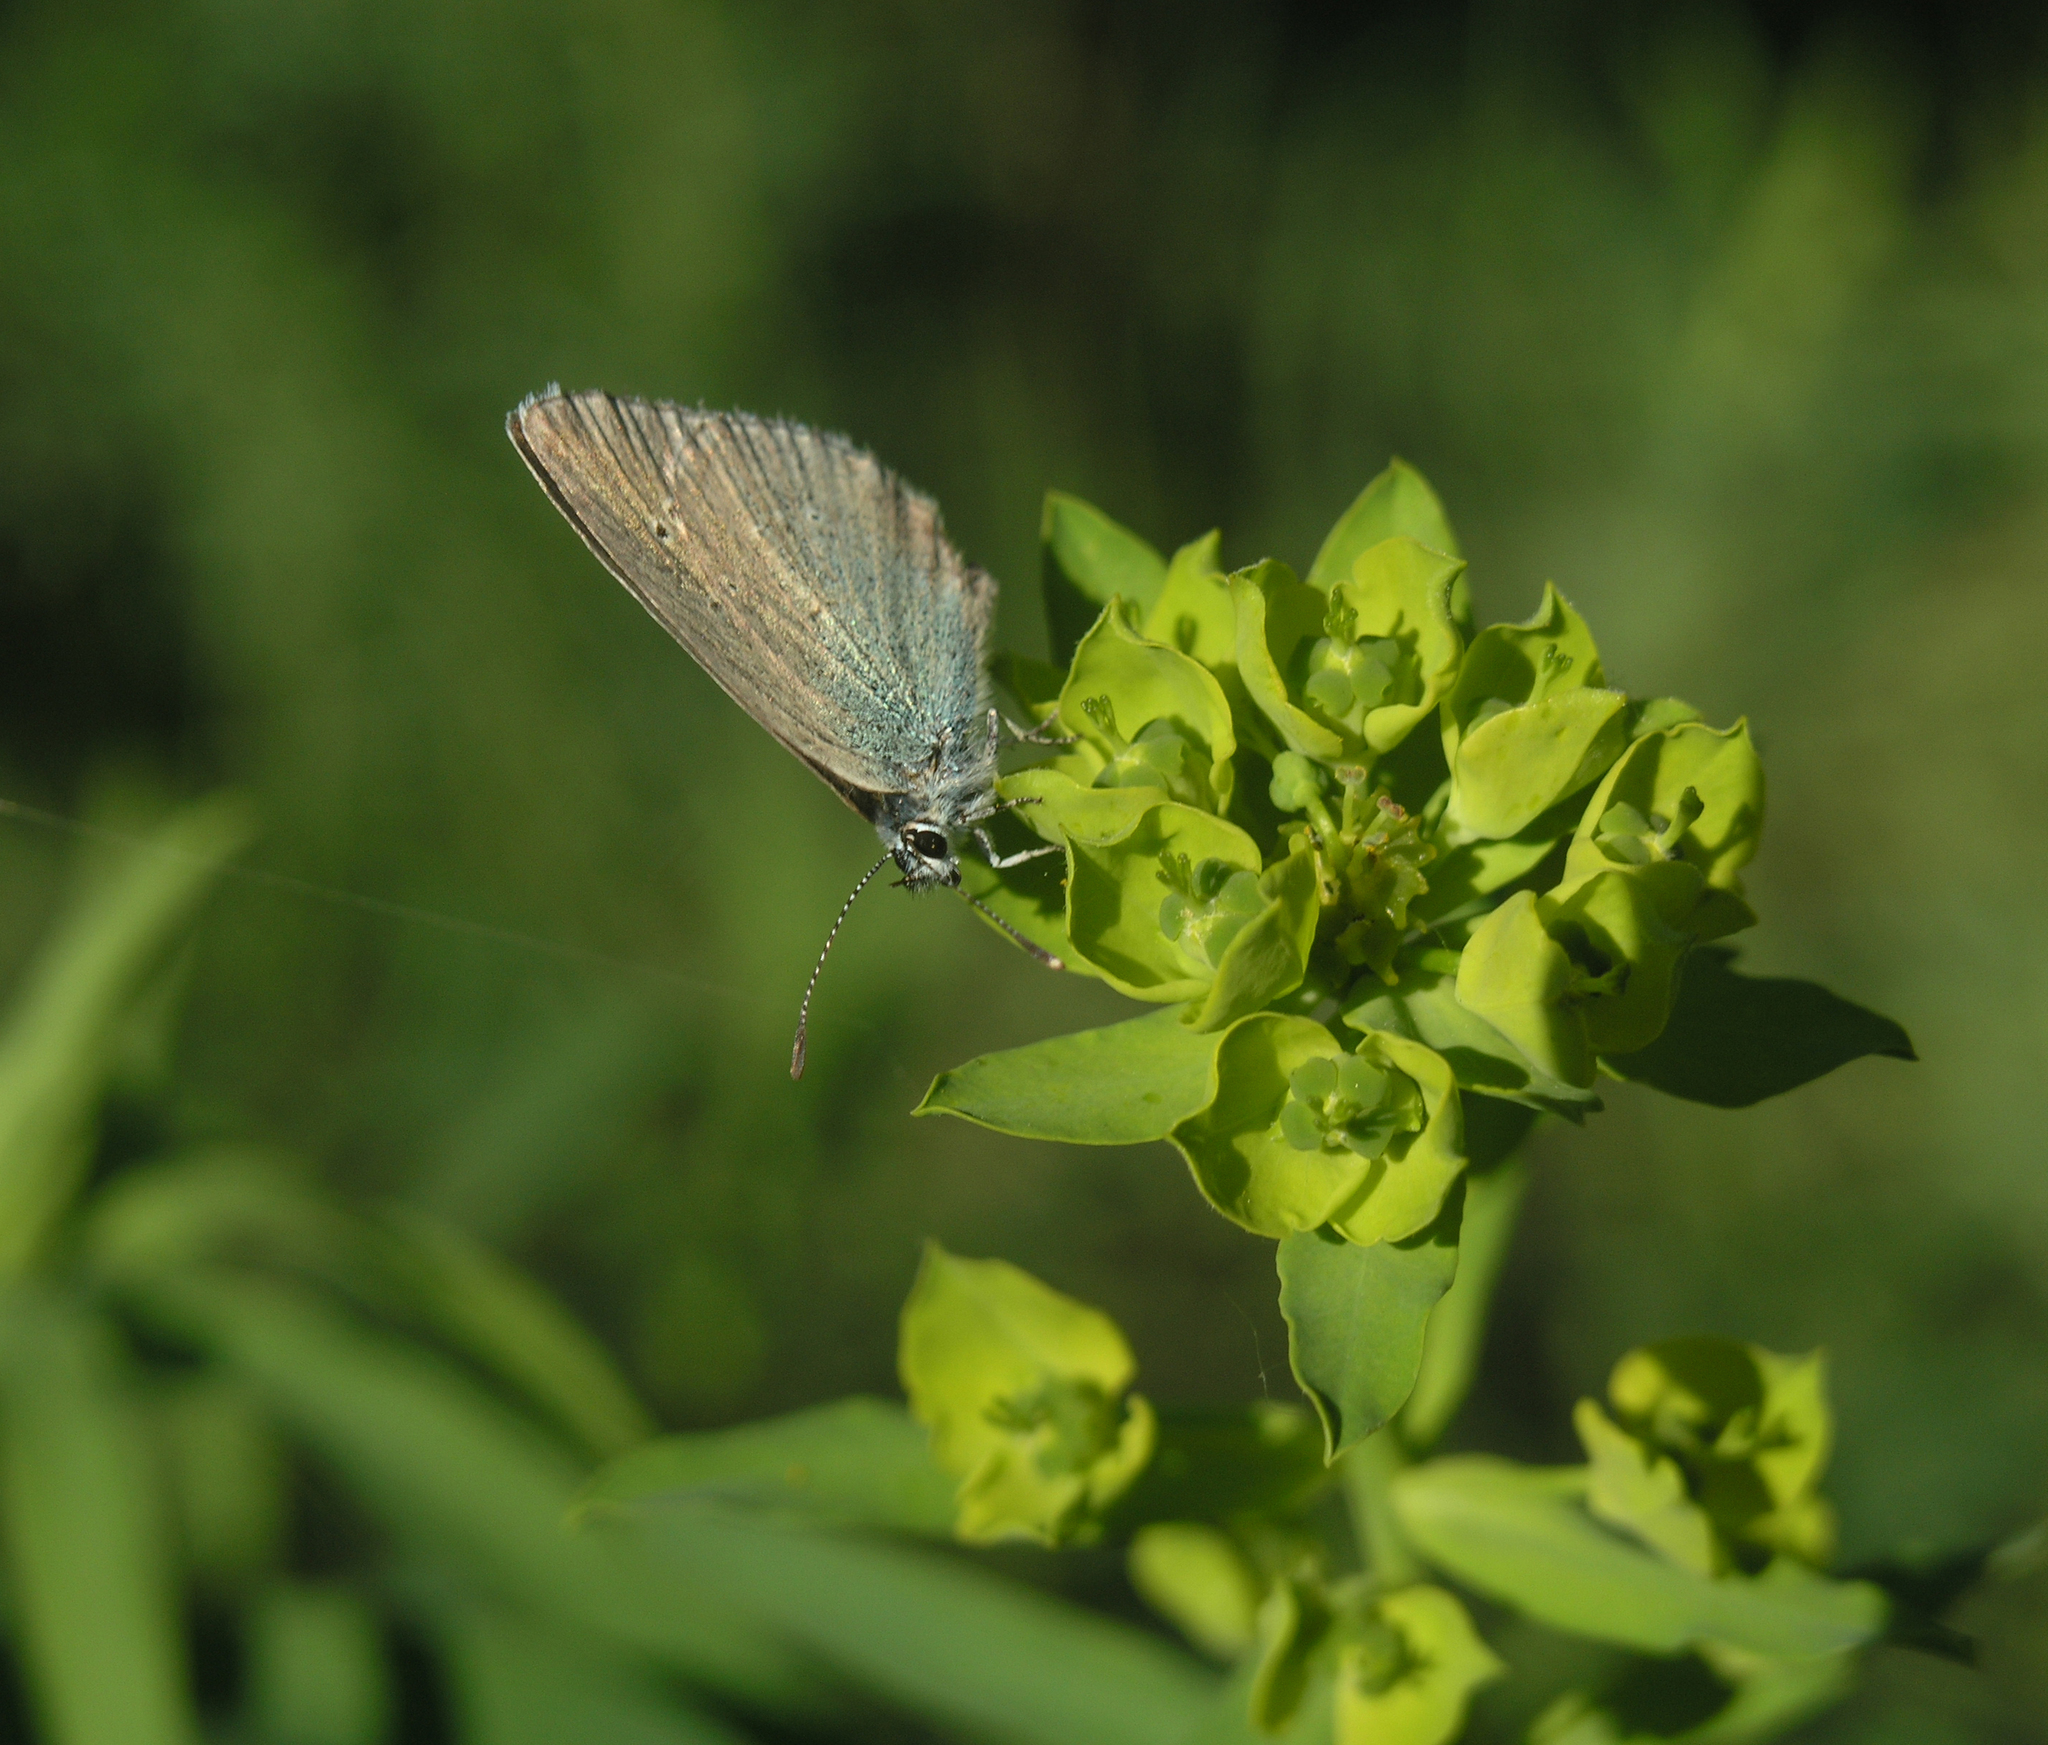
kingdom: Animalia
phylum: Arthropoda
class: Insecta
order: Lepidoptera
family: Lycaenidae
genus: Glaucopsyche
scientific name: Glaucopsyche alexis
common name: Green-underside blue
